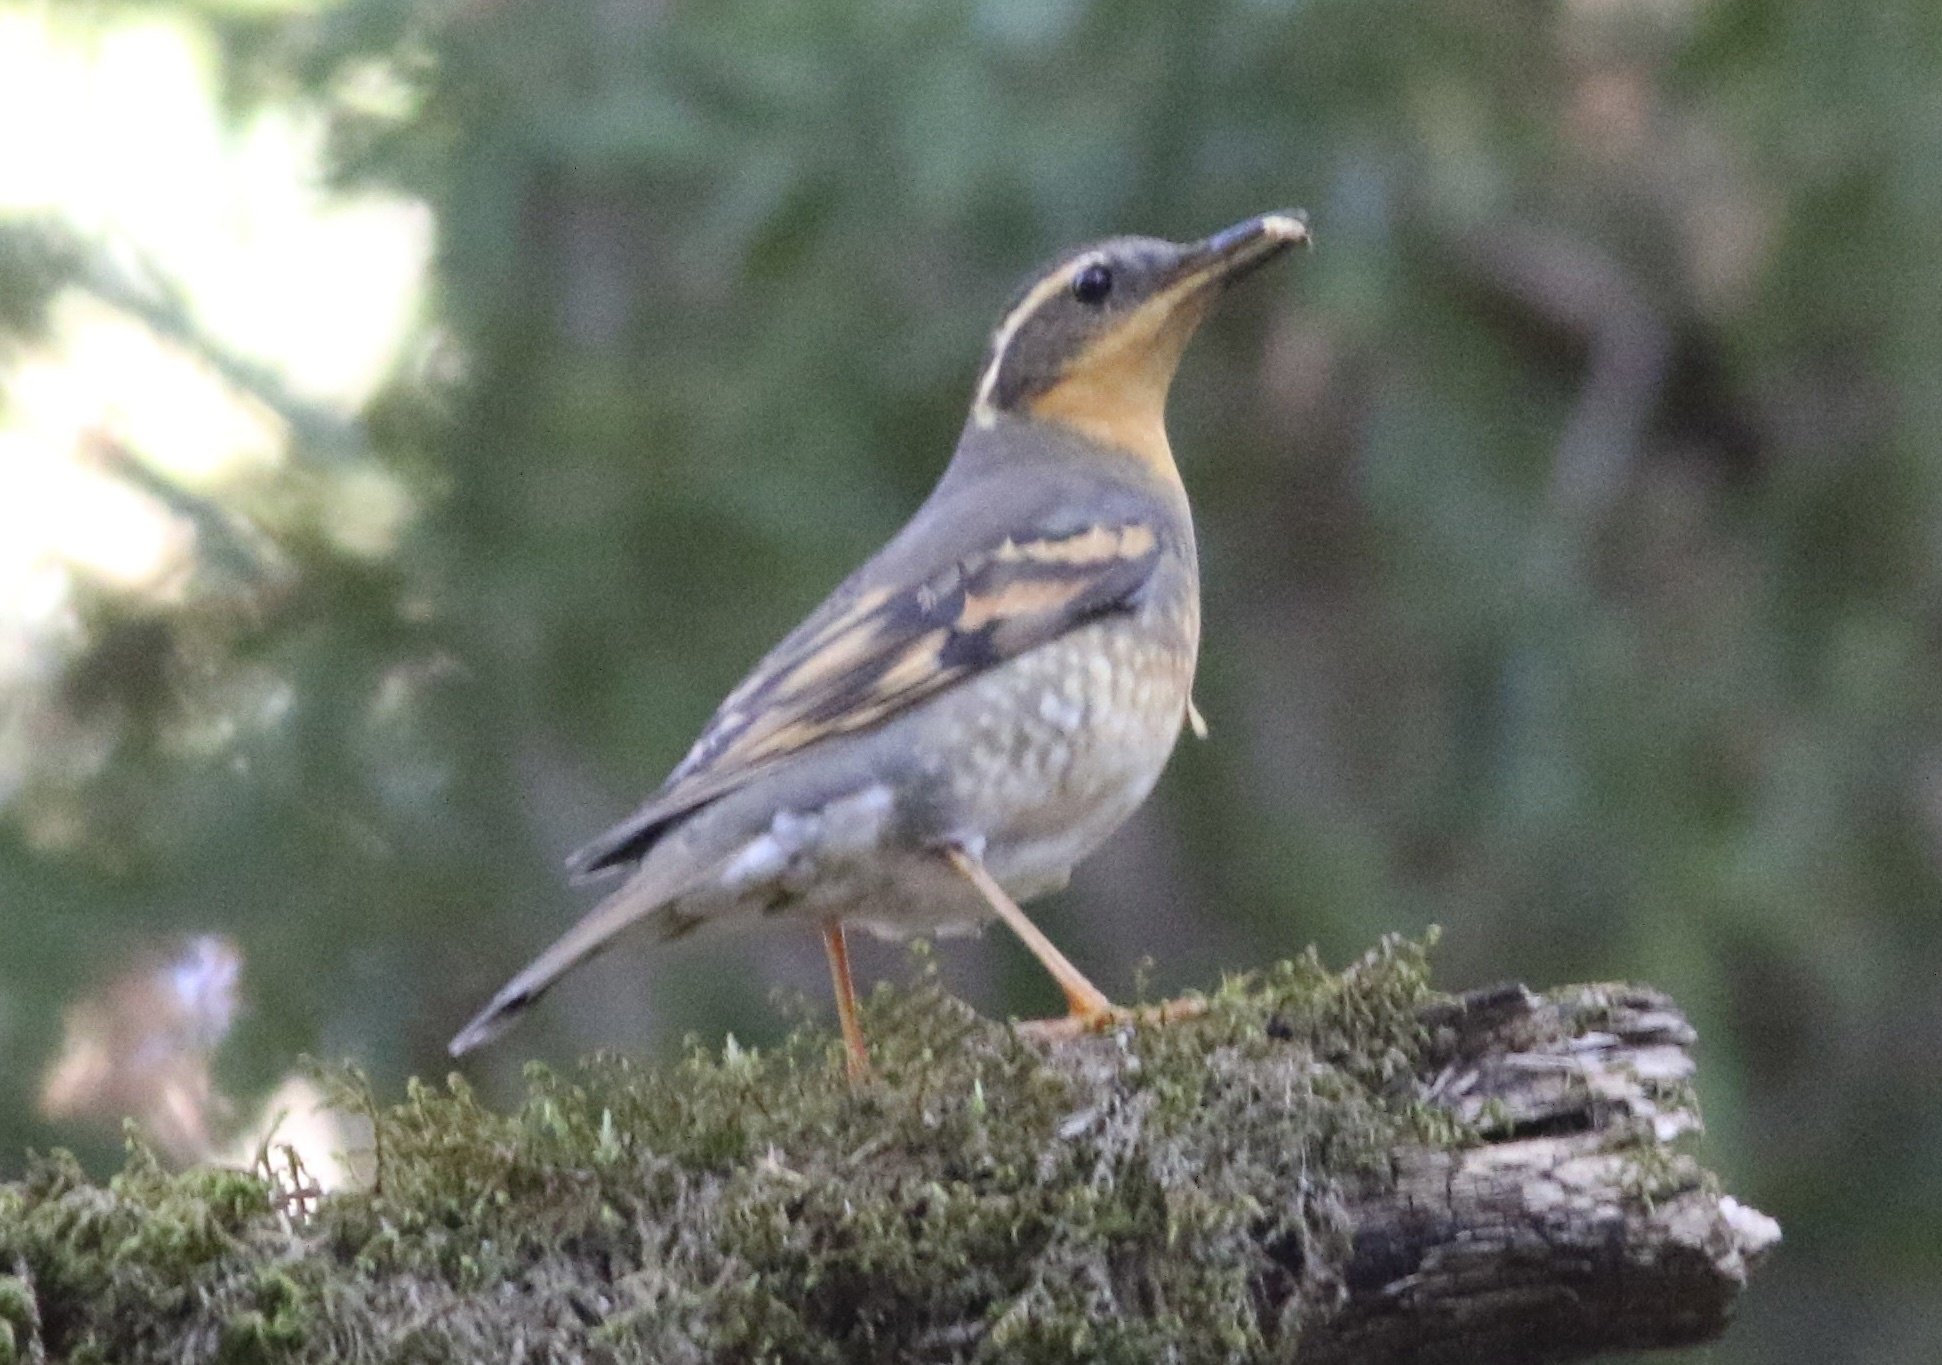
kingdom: Animalia
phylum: Chordata
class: Aves
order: Passeriformes
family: Turdidae
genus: Ixoreus
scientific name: Ixoreus naevius
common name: Varied thrush
